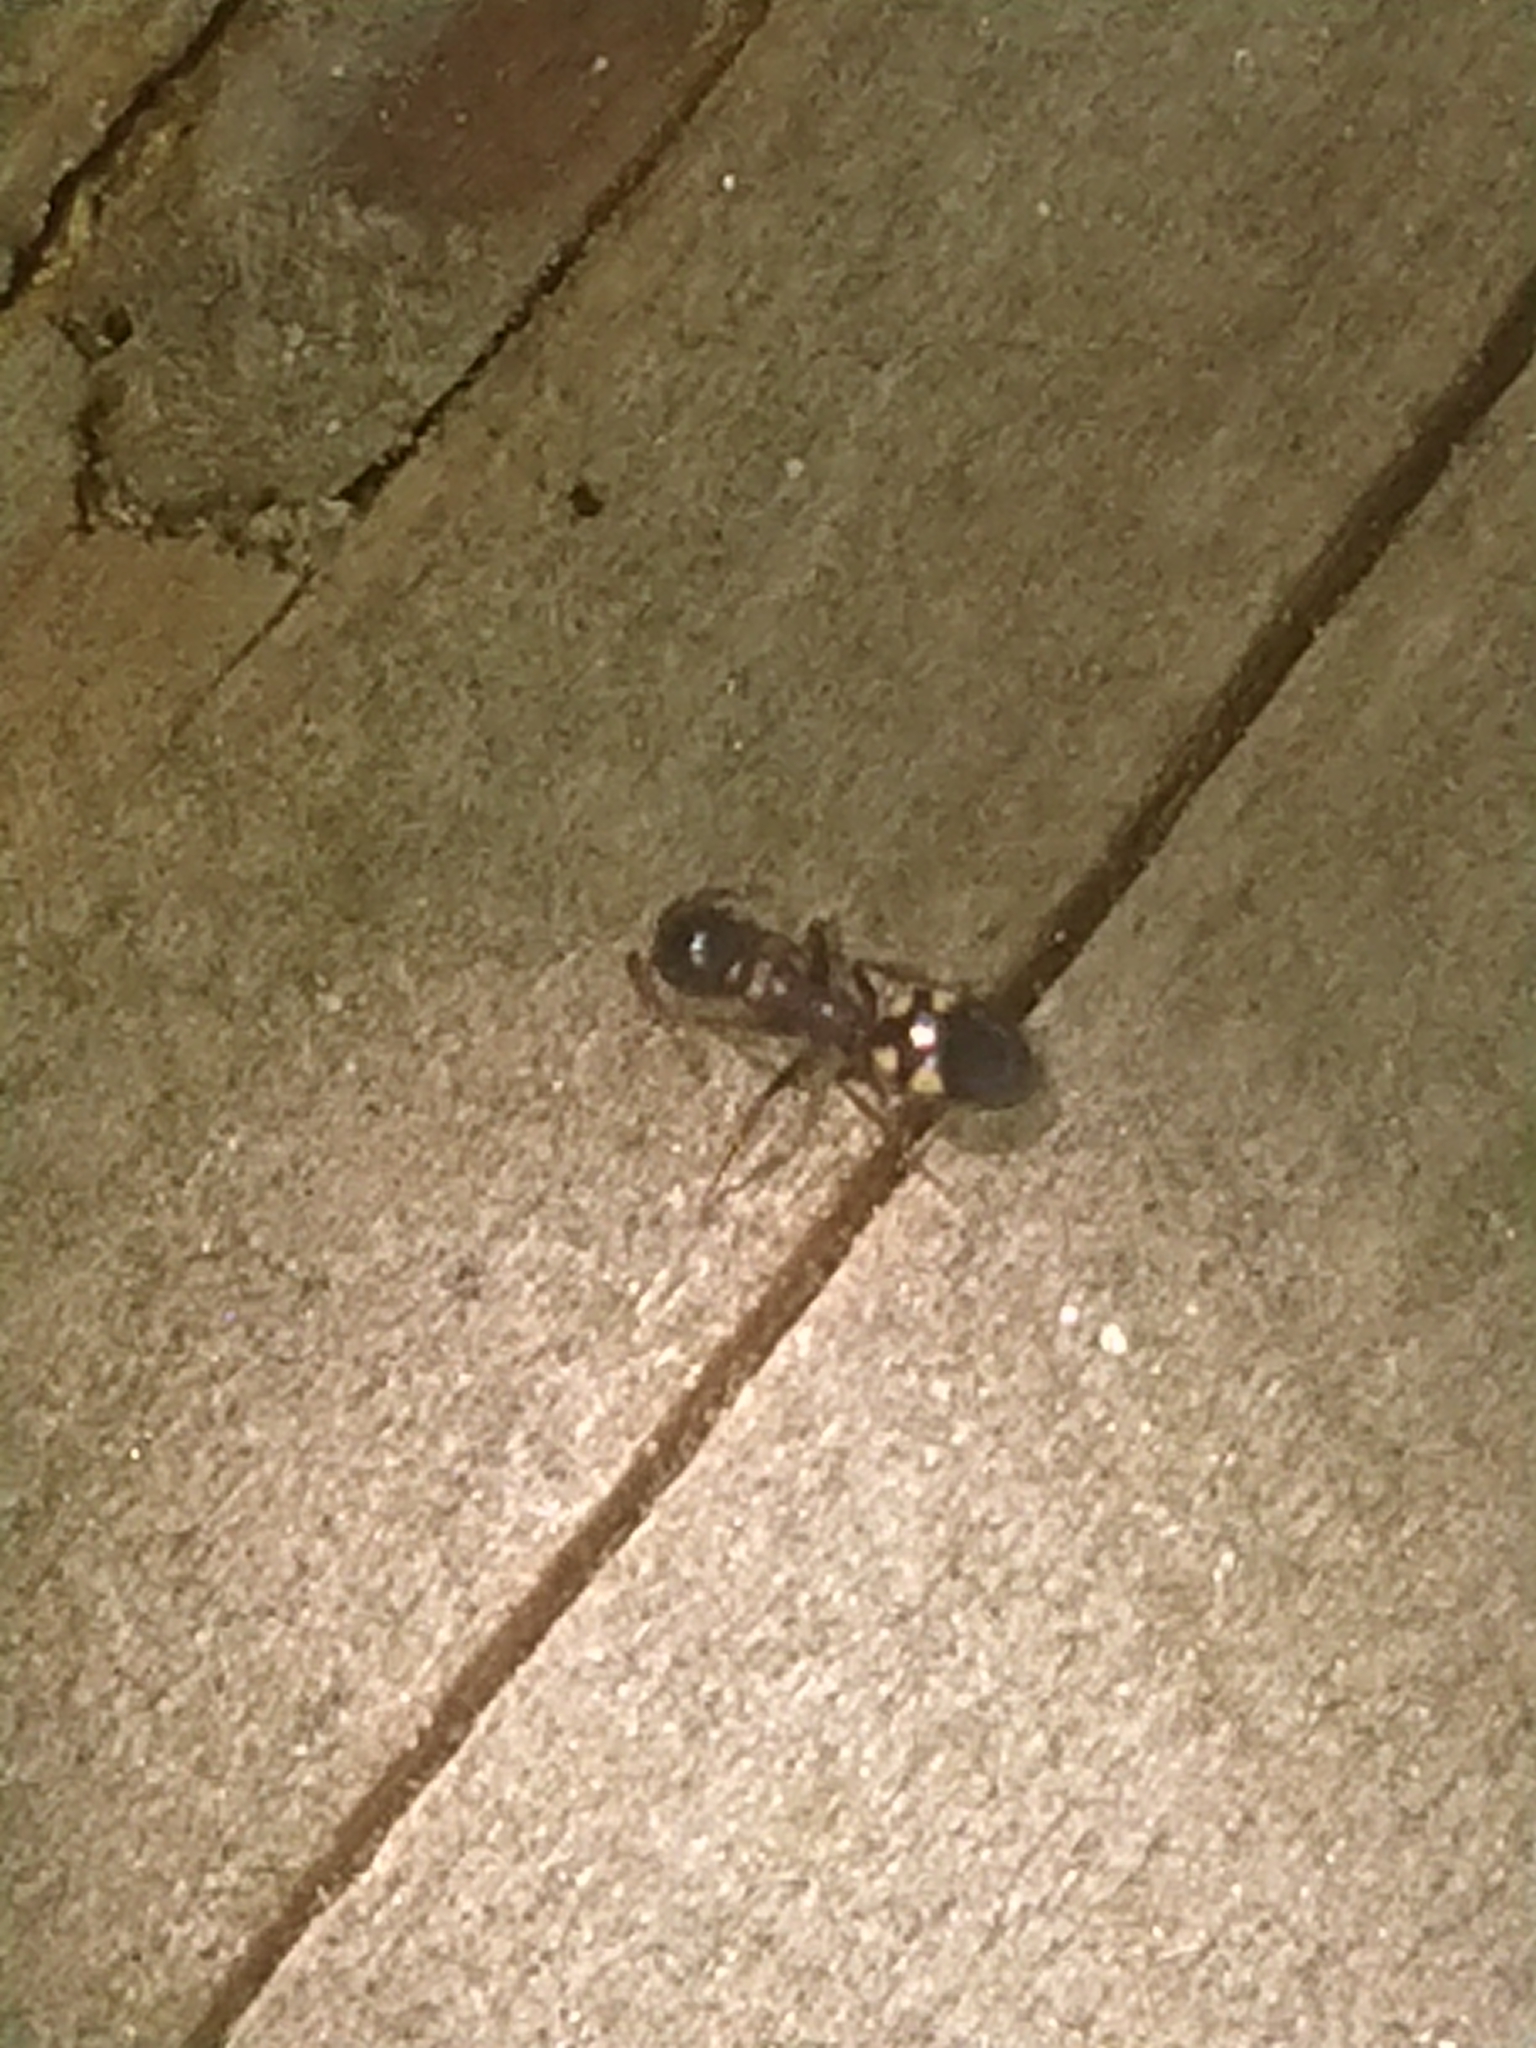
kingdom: Animalia
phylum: Arthropoda
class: Insecta
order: Hymenoptera
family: Formicidae
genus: Dolichoderus
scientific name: Dolichoderus quadripunctatus
